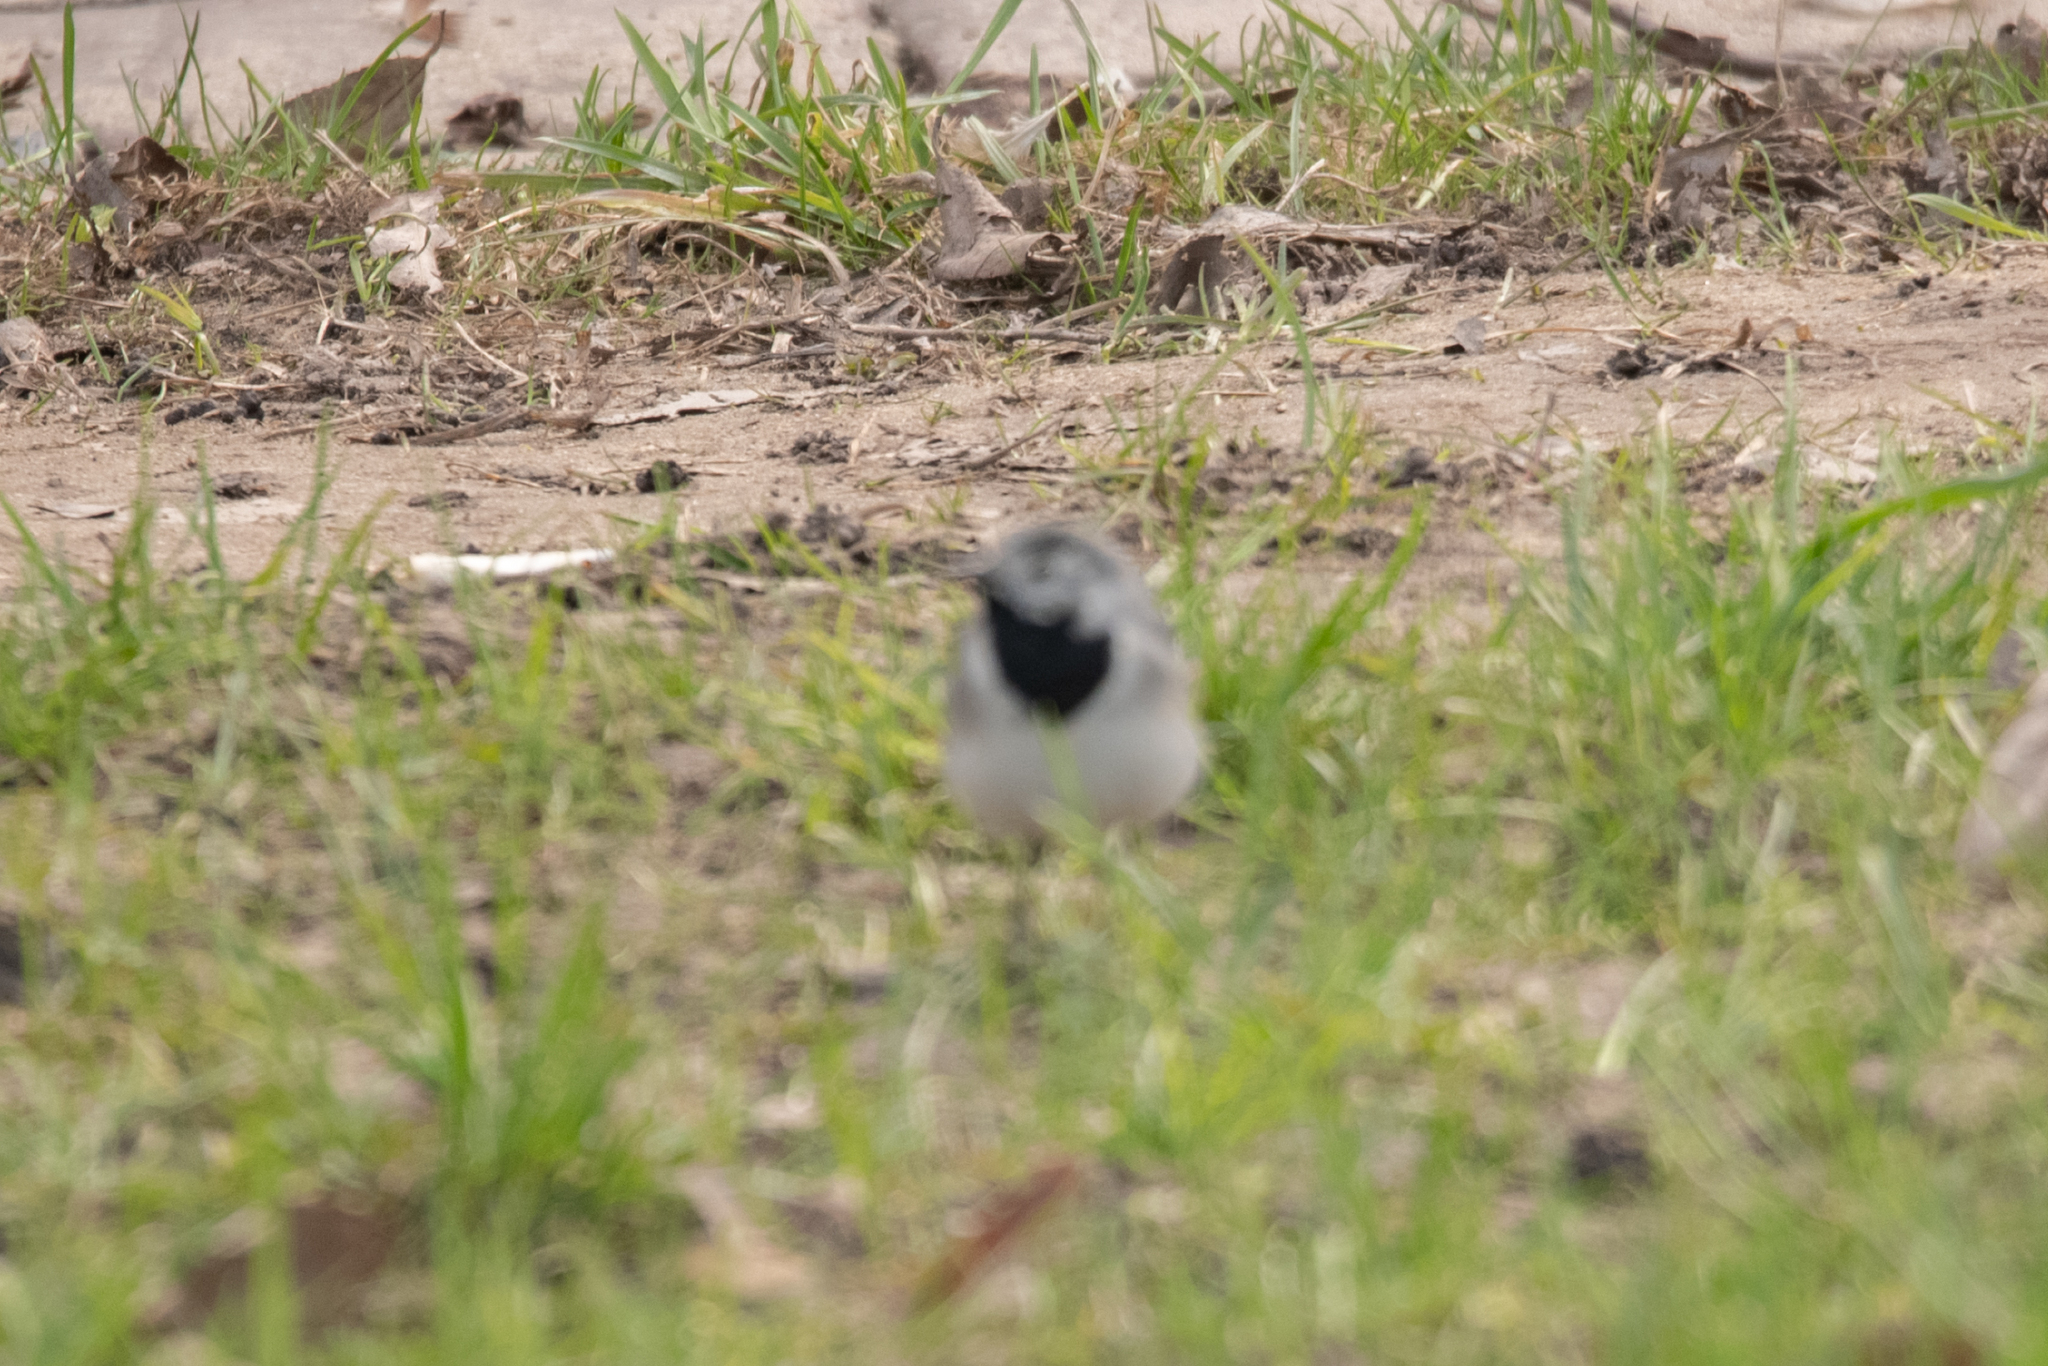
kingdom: Animalia
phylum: Chordata
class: Aves
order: Passeriformes
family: Motacillidae
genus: Motacilla
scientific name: Motacilla alba
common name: White wagtail
